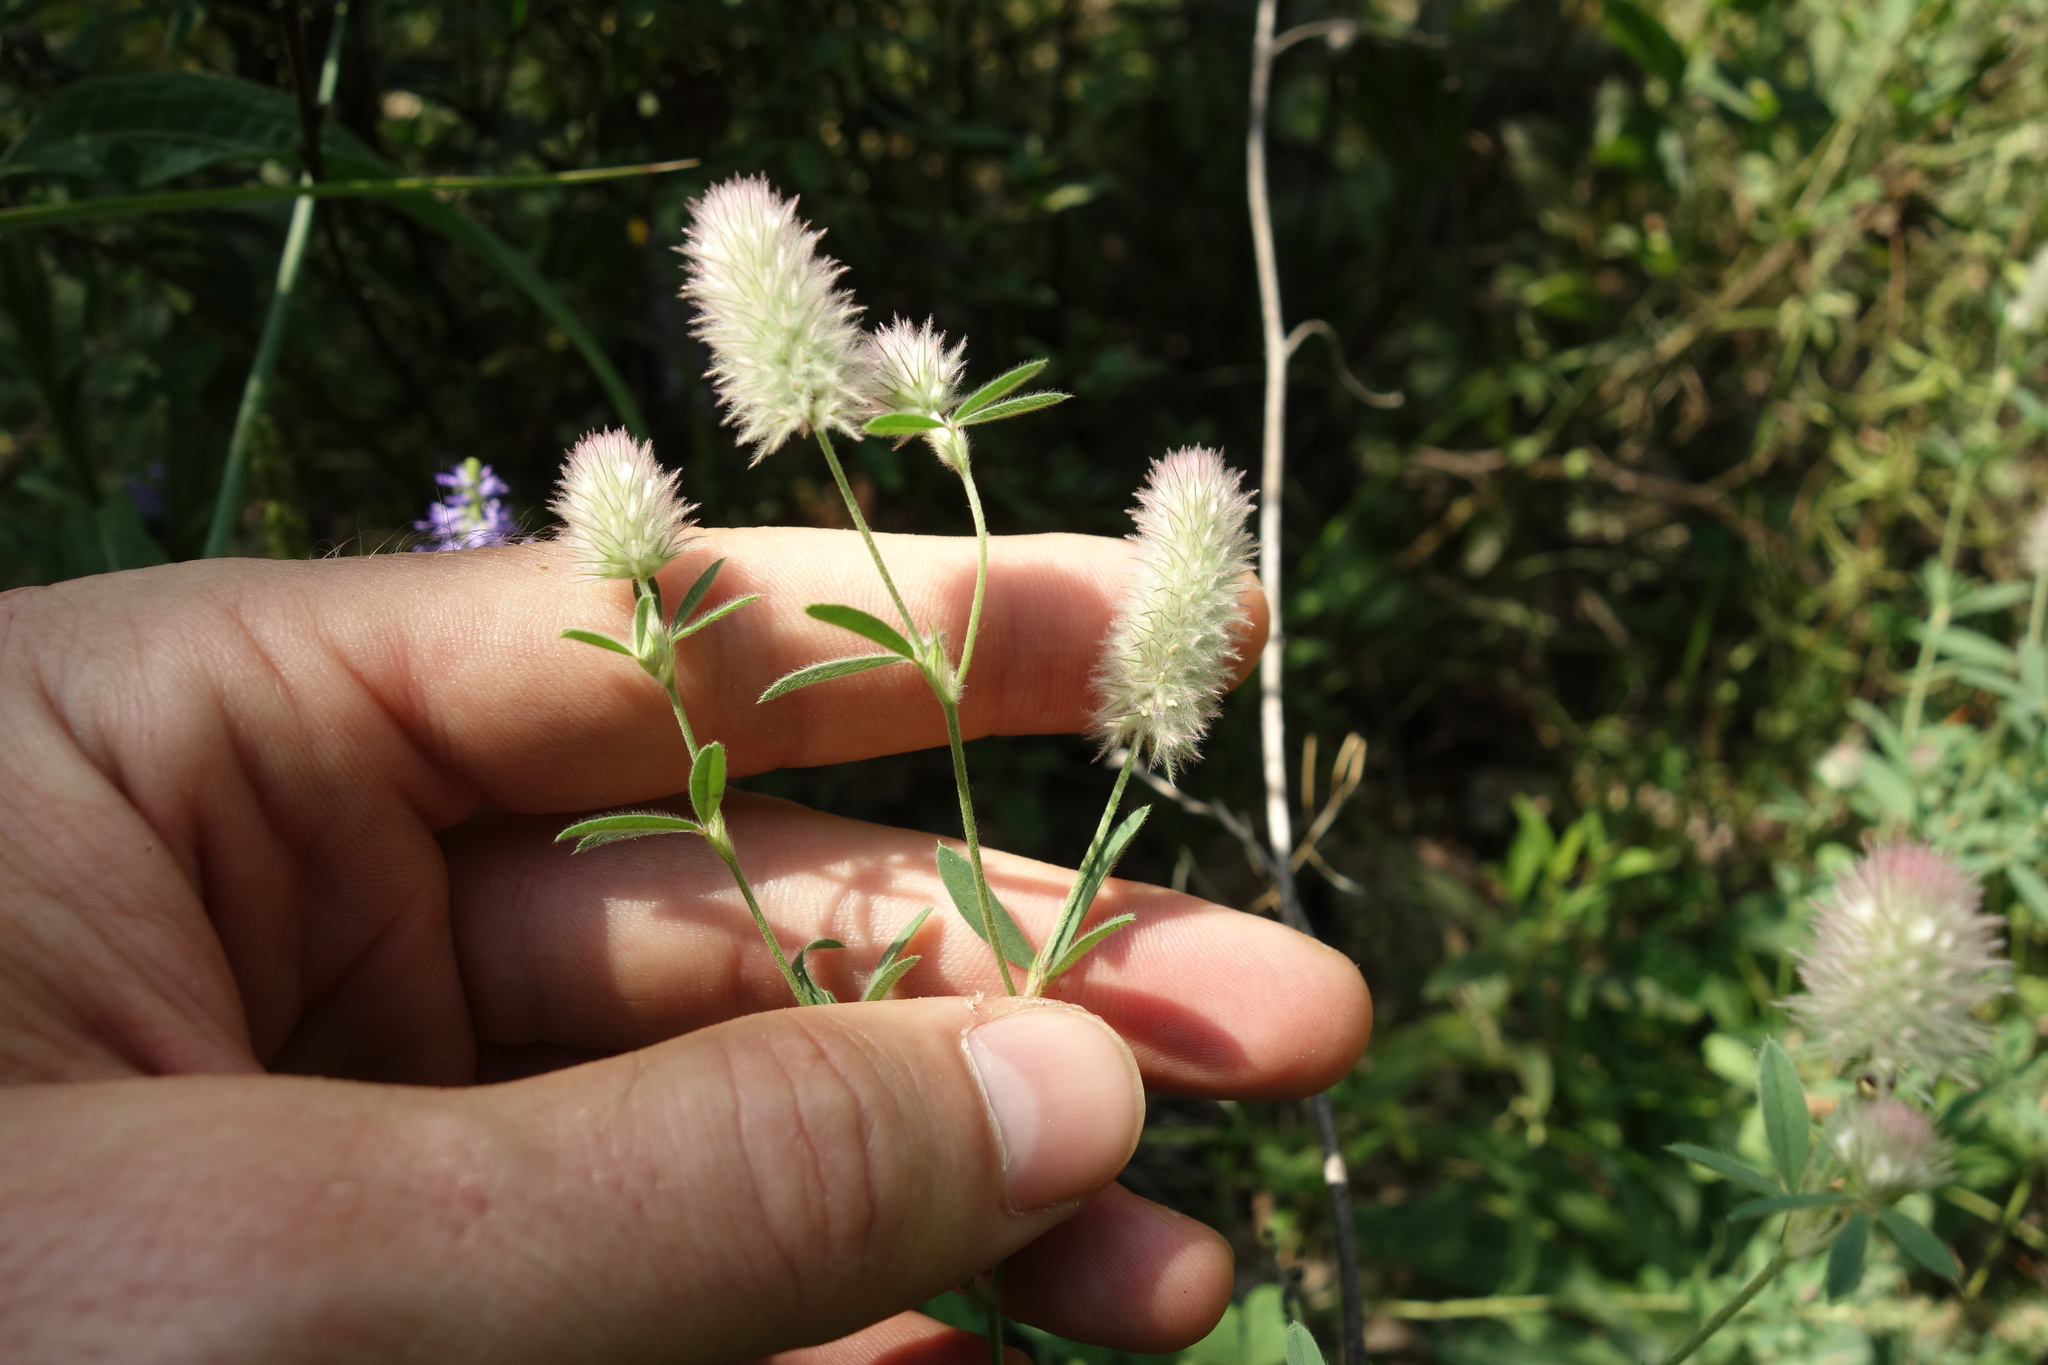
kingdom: Plantae
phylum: Tracheophyta
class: Magnoliopsida
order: Fabales
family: Fabaceae
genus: Trifolium
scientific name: Trifolium arvense
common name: Hare's-foot clover
